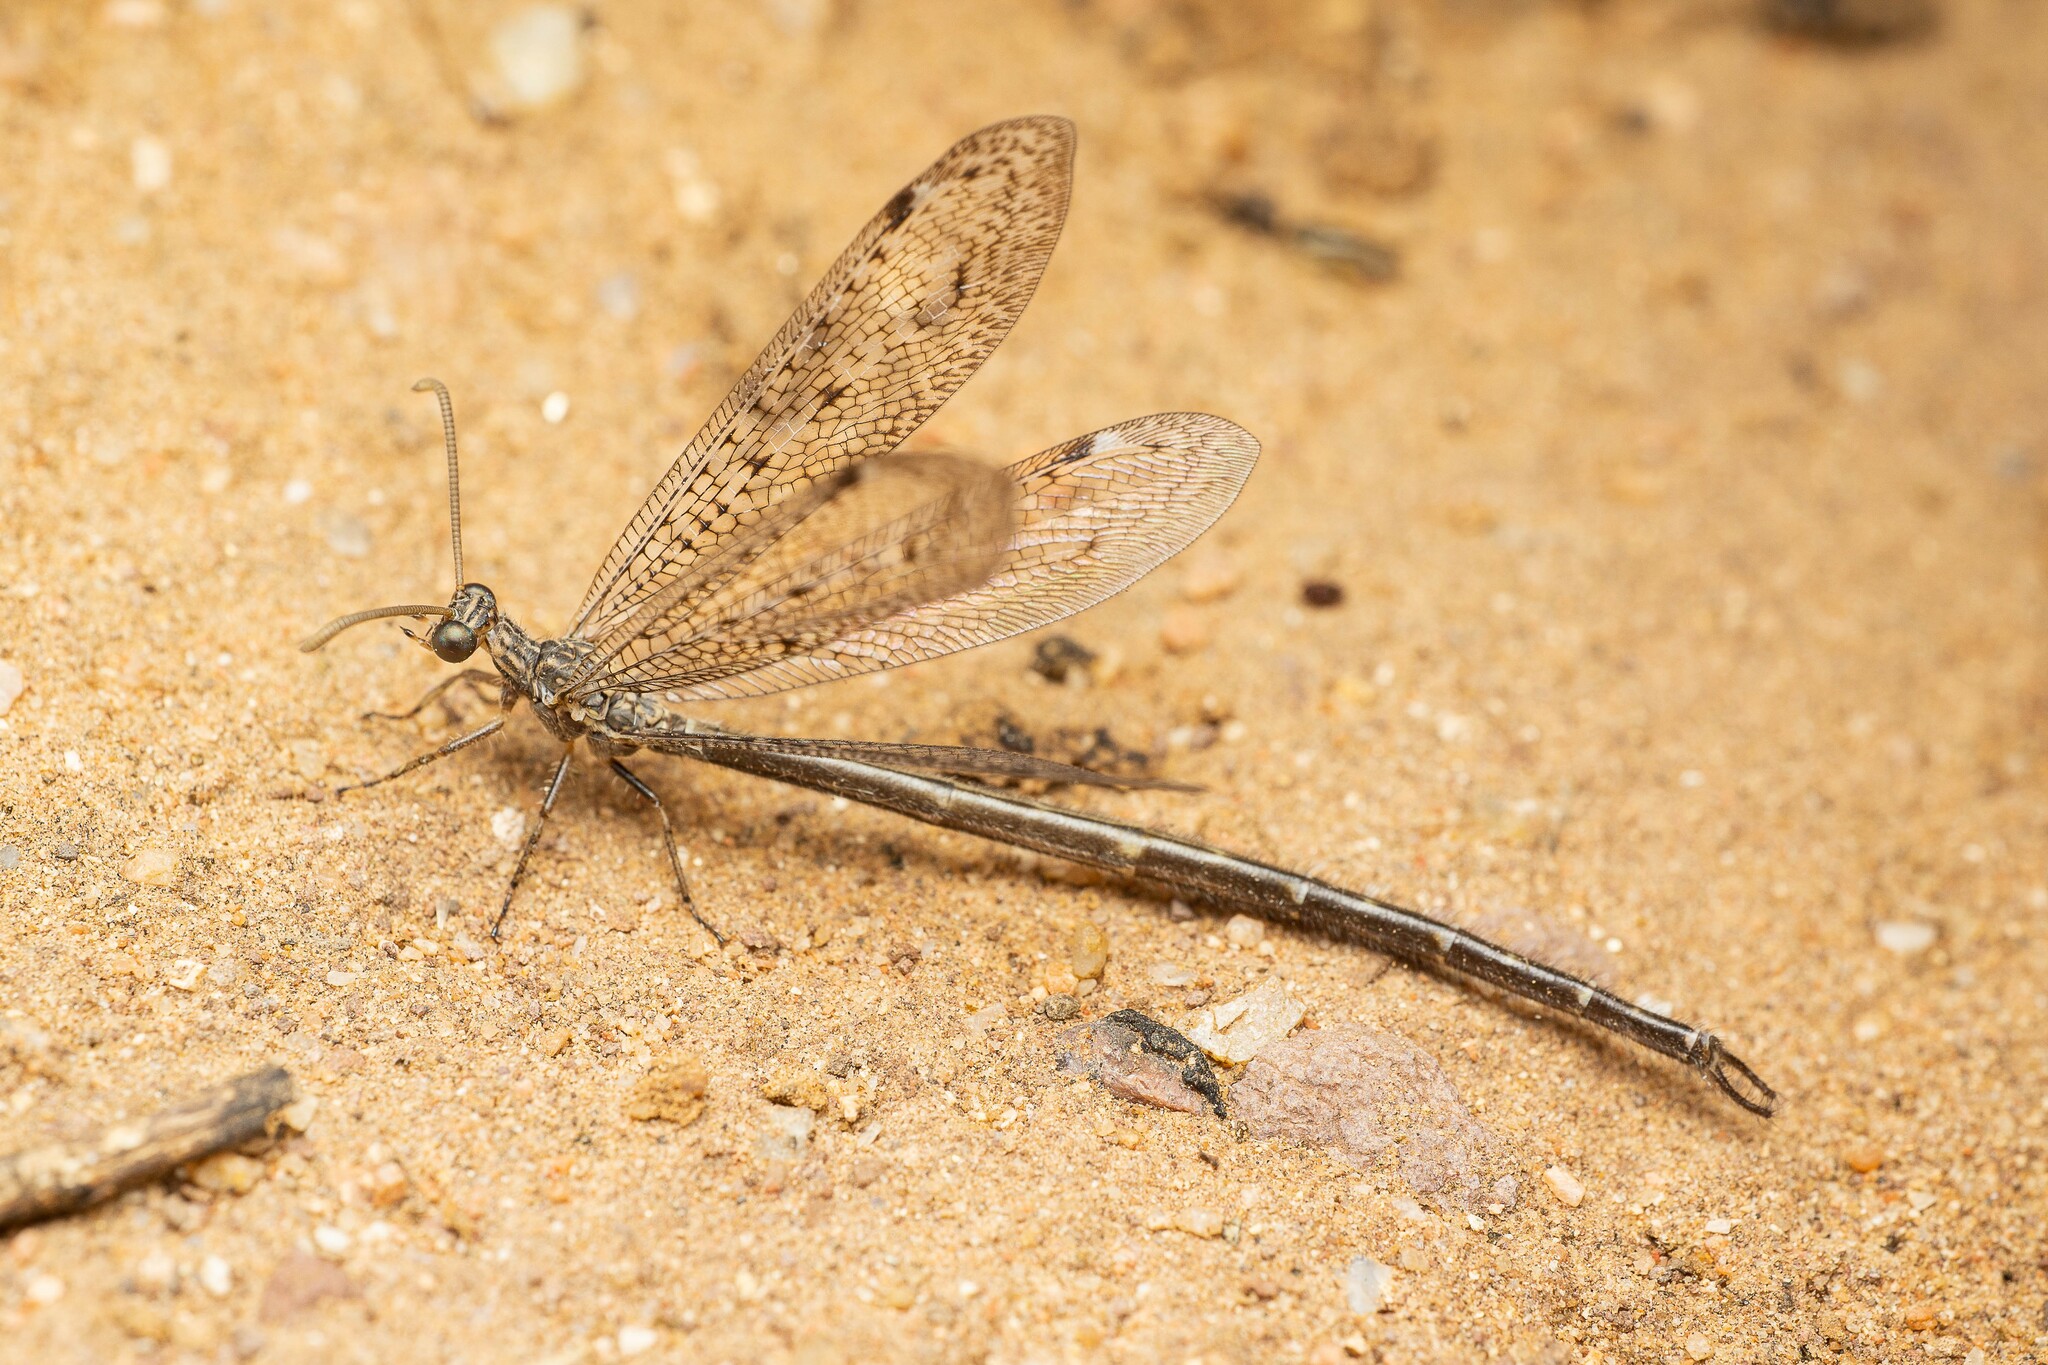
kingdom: Animalia
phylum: Arthropoda
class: Insecta
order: Neuroptera
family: Myrmeleontidae
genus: Scotoleon
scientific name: Scotoleon peregrinus
